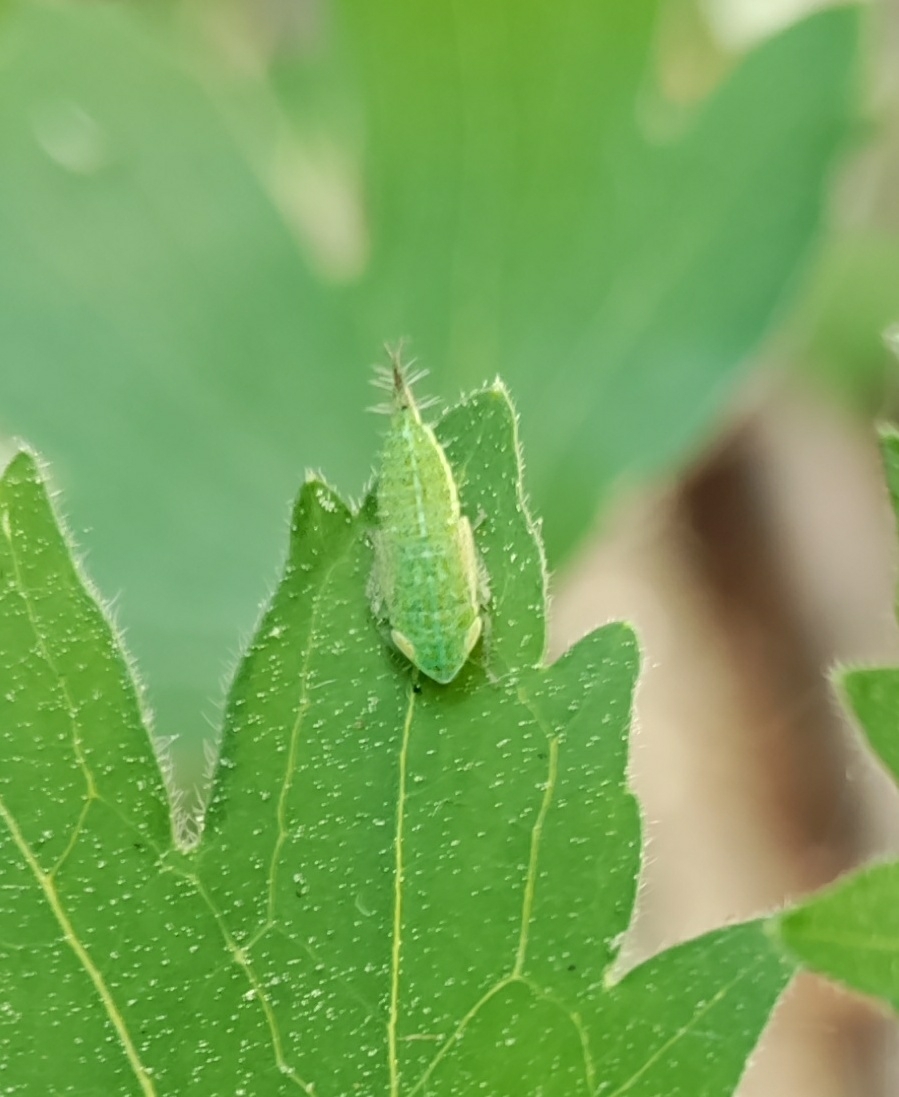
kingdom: Animalia
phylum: Arthropoda
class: Insecta
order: Hemiptera
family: Cicadellidae
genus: Fieberiella
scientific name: Fieberiella florii
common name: Flor’s leafhopper
